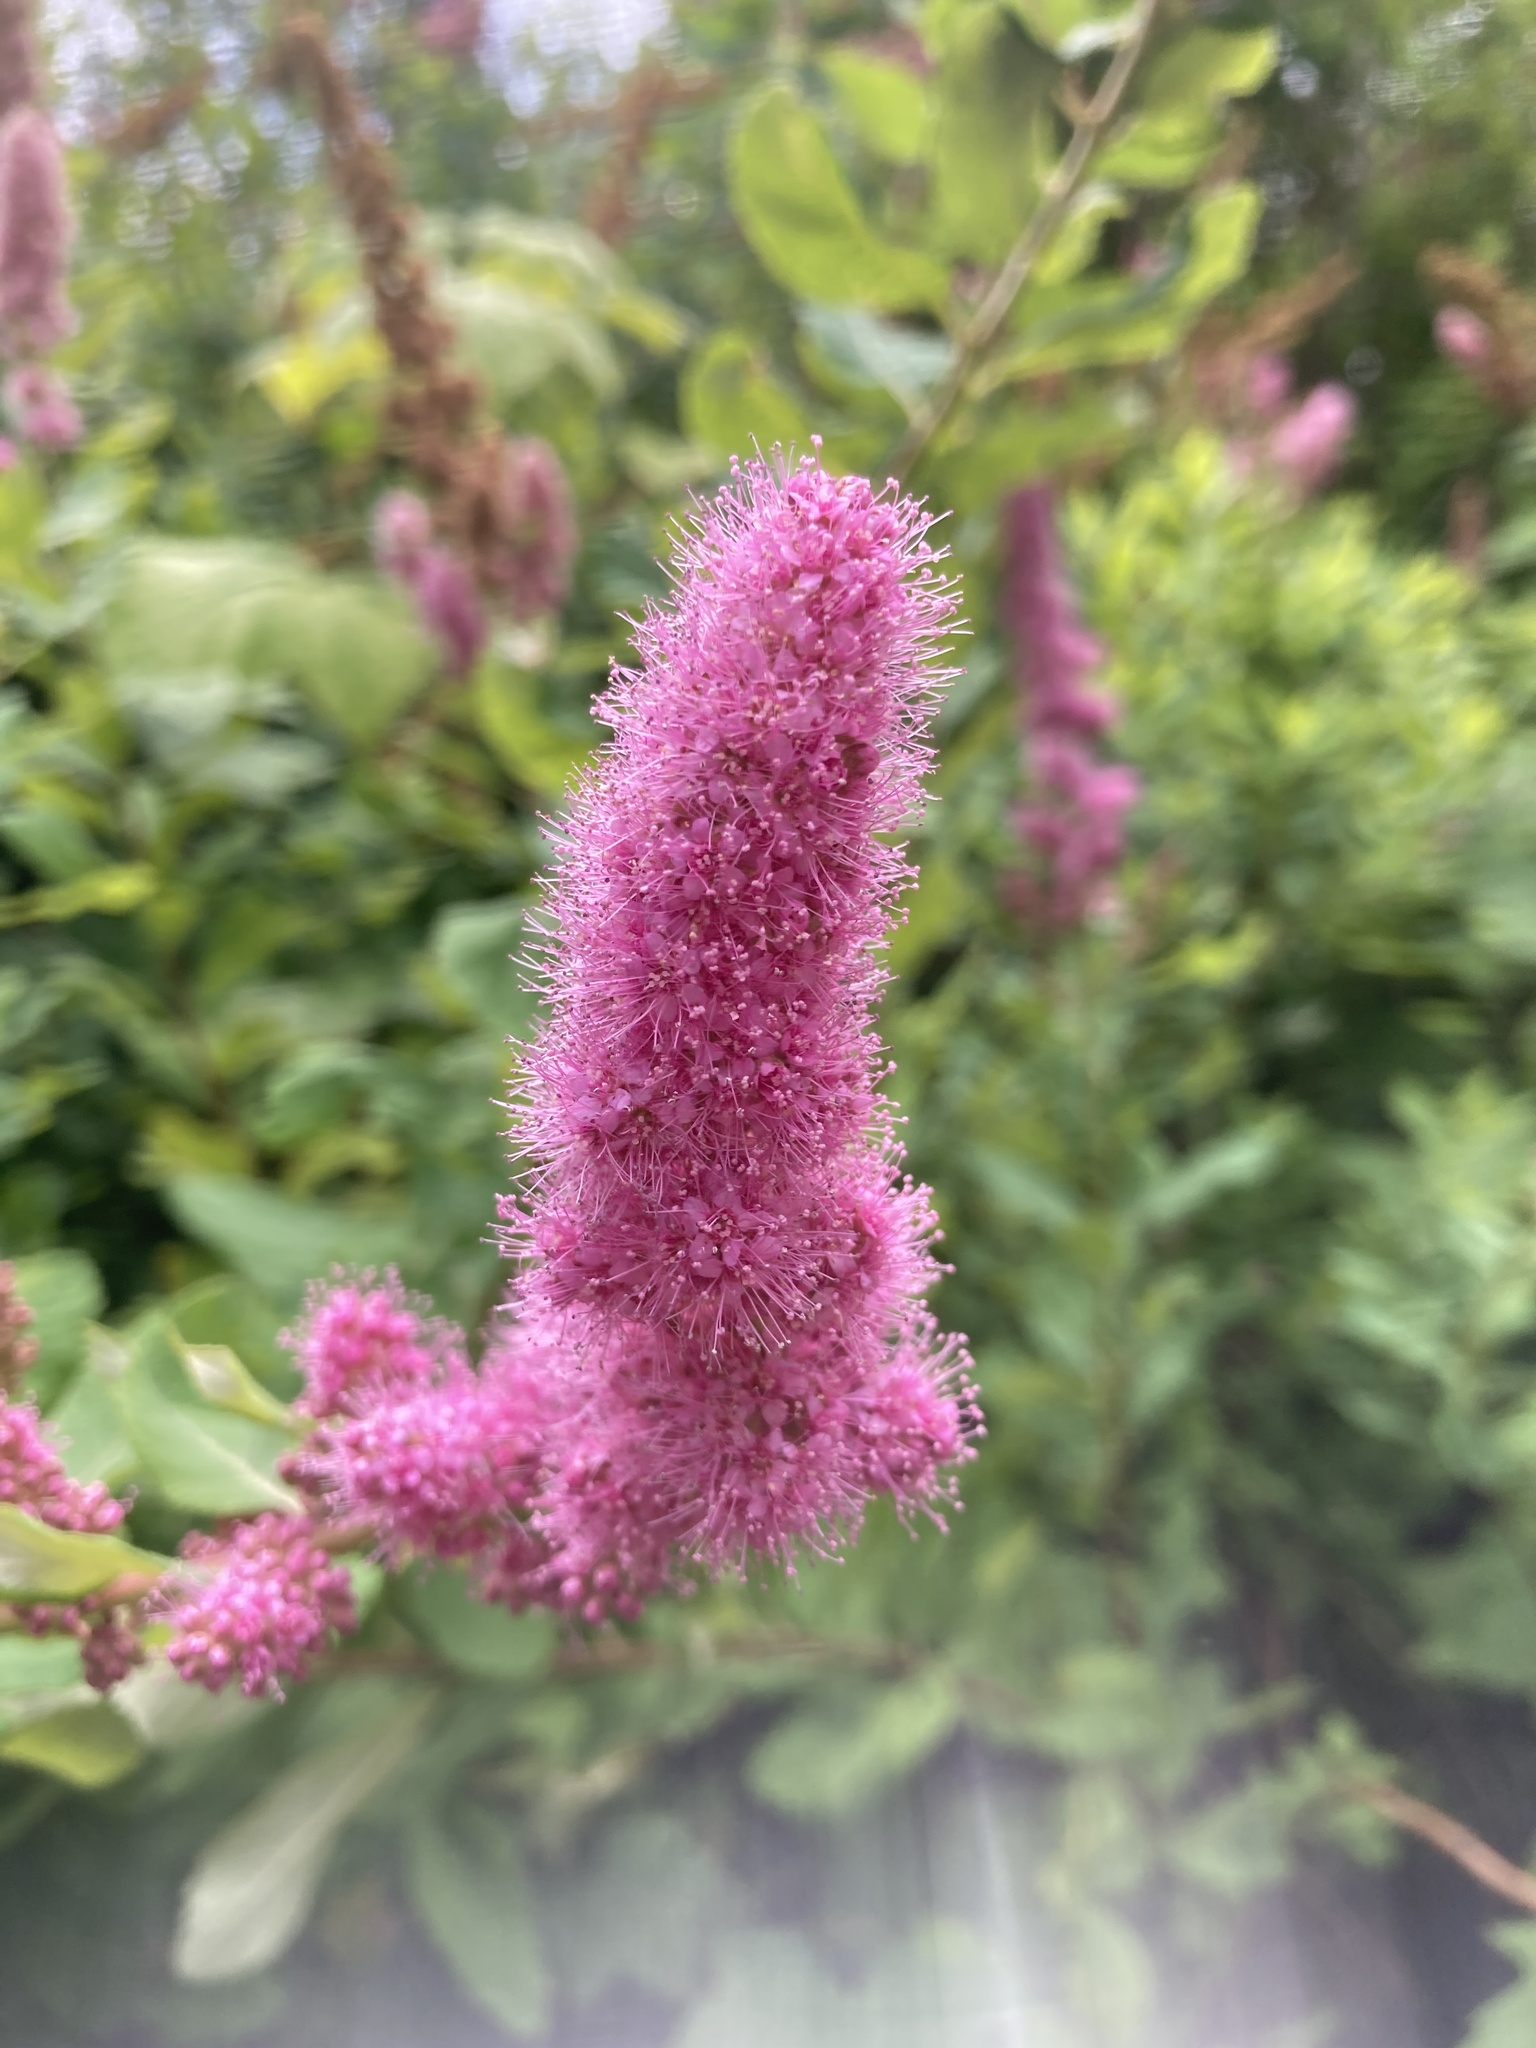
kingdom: Plantae
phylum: Tracheophyta
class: Magnoliopsida
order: Rosales
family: Rosaceae
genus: Spiraea
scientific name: Spiraea douglasii
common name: Steeplebush
